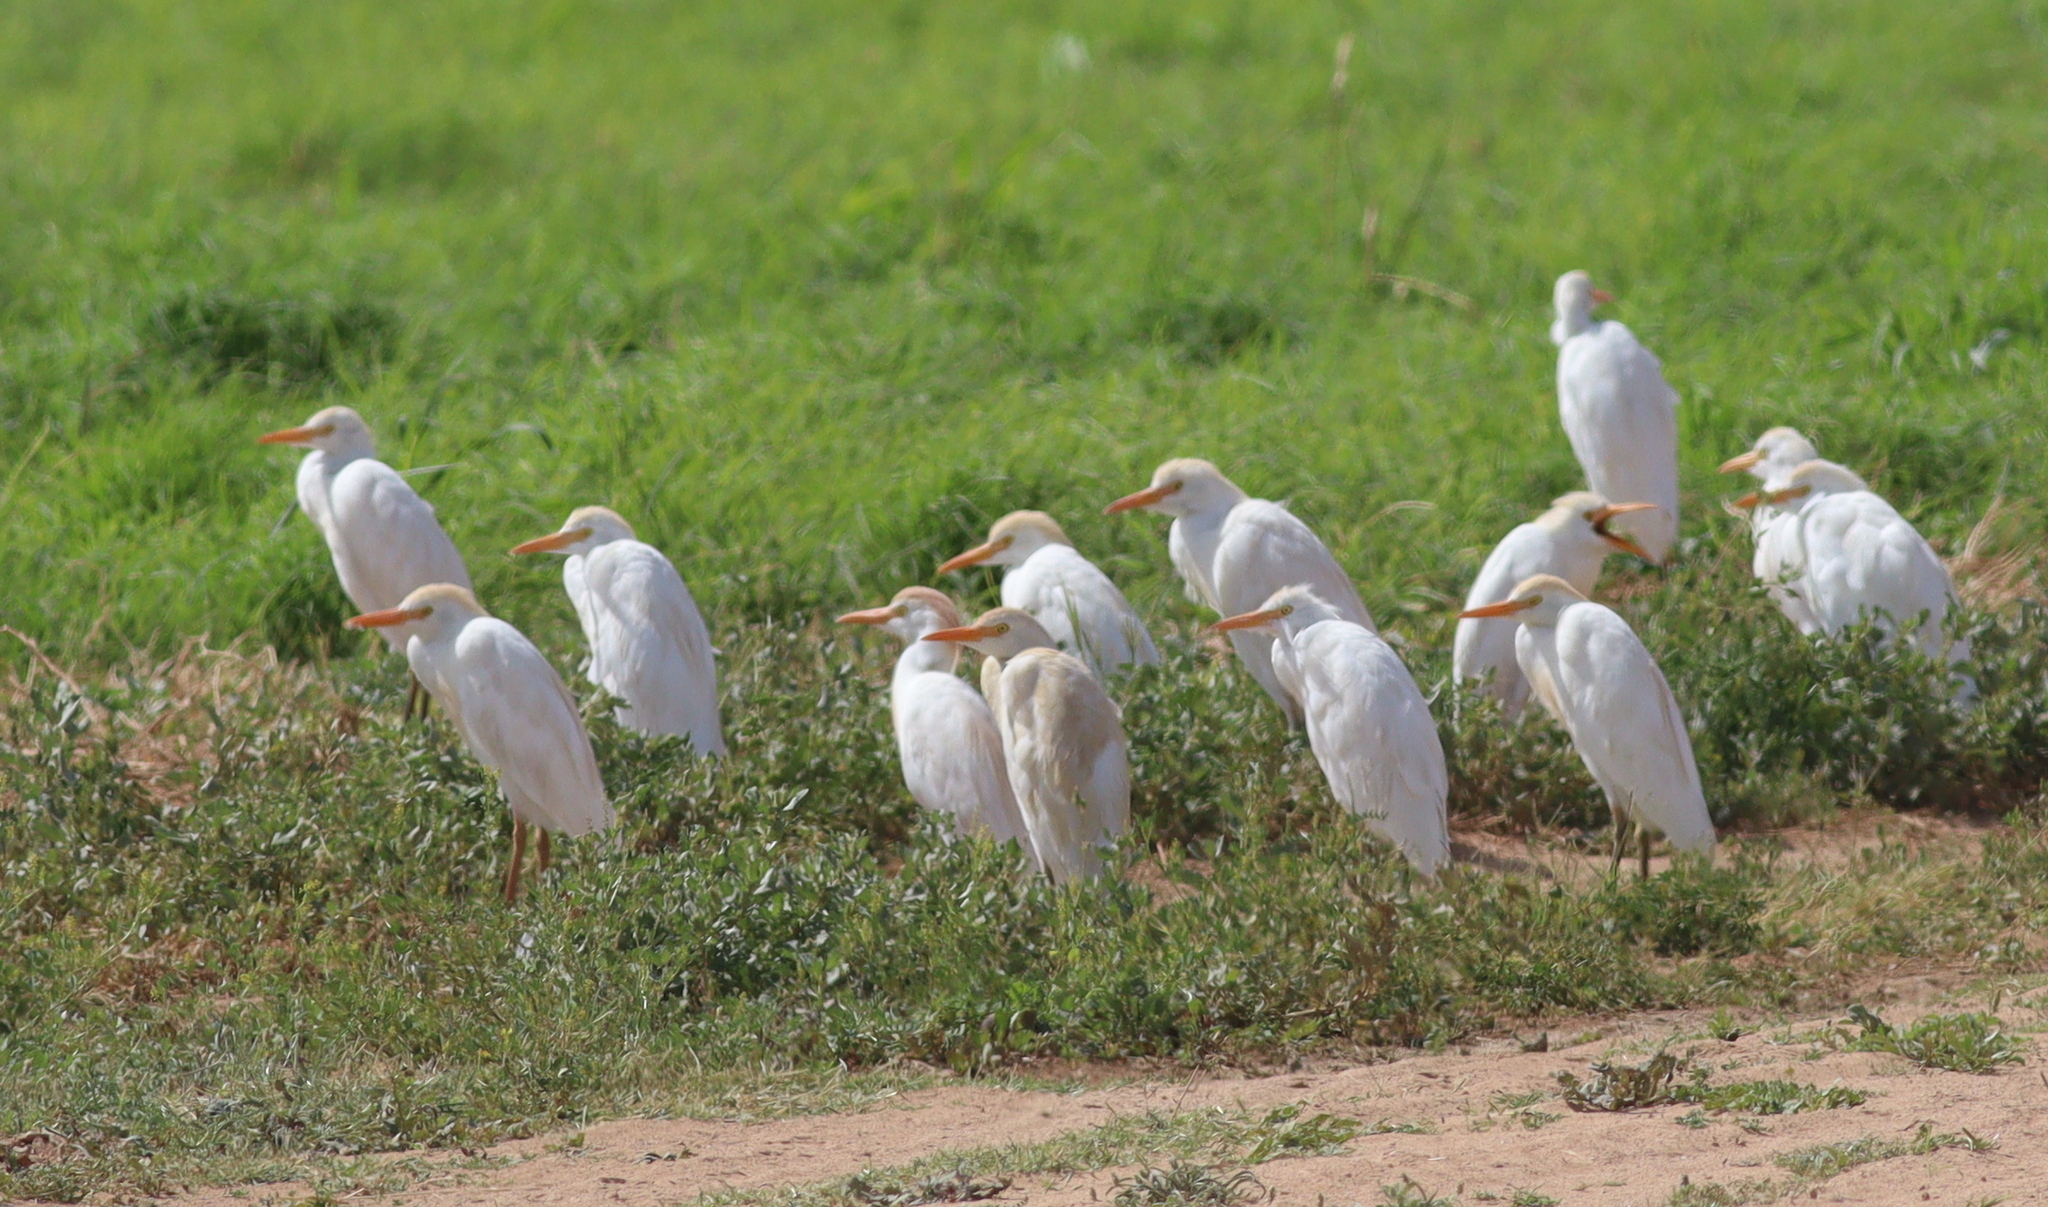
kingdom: Animalia
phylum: Chordata
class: Aves
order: Pelecaniformes
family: Ardeidae
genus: Bubulcus
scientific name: Bubulcus ibis
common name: Cattle egret
